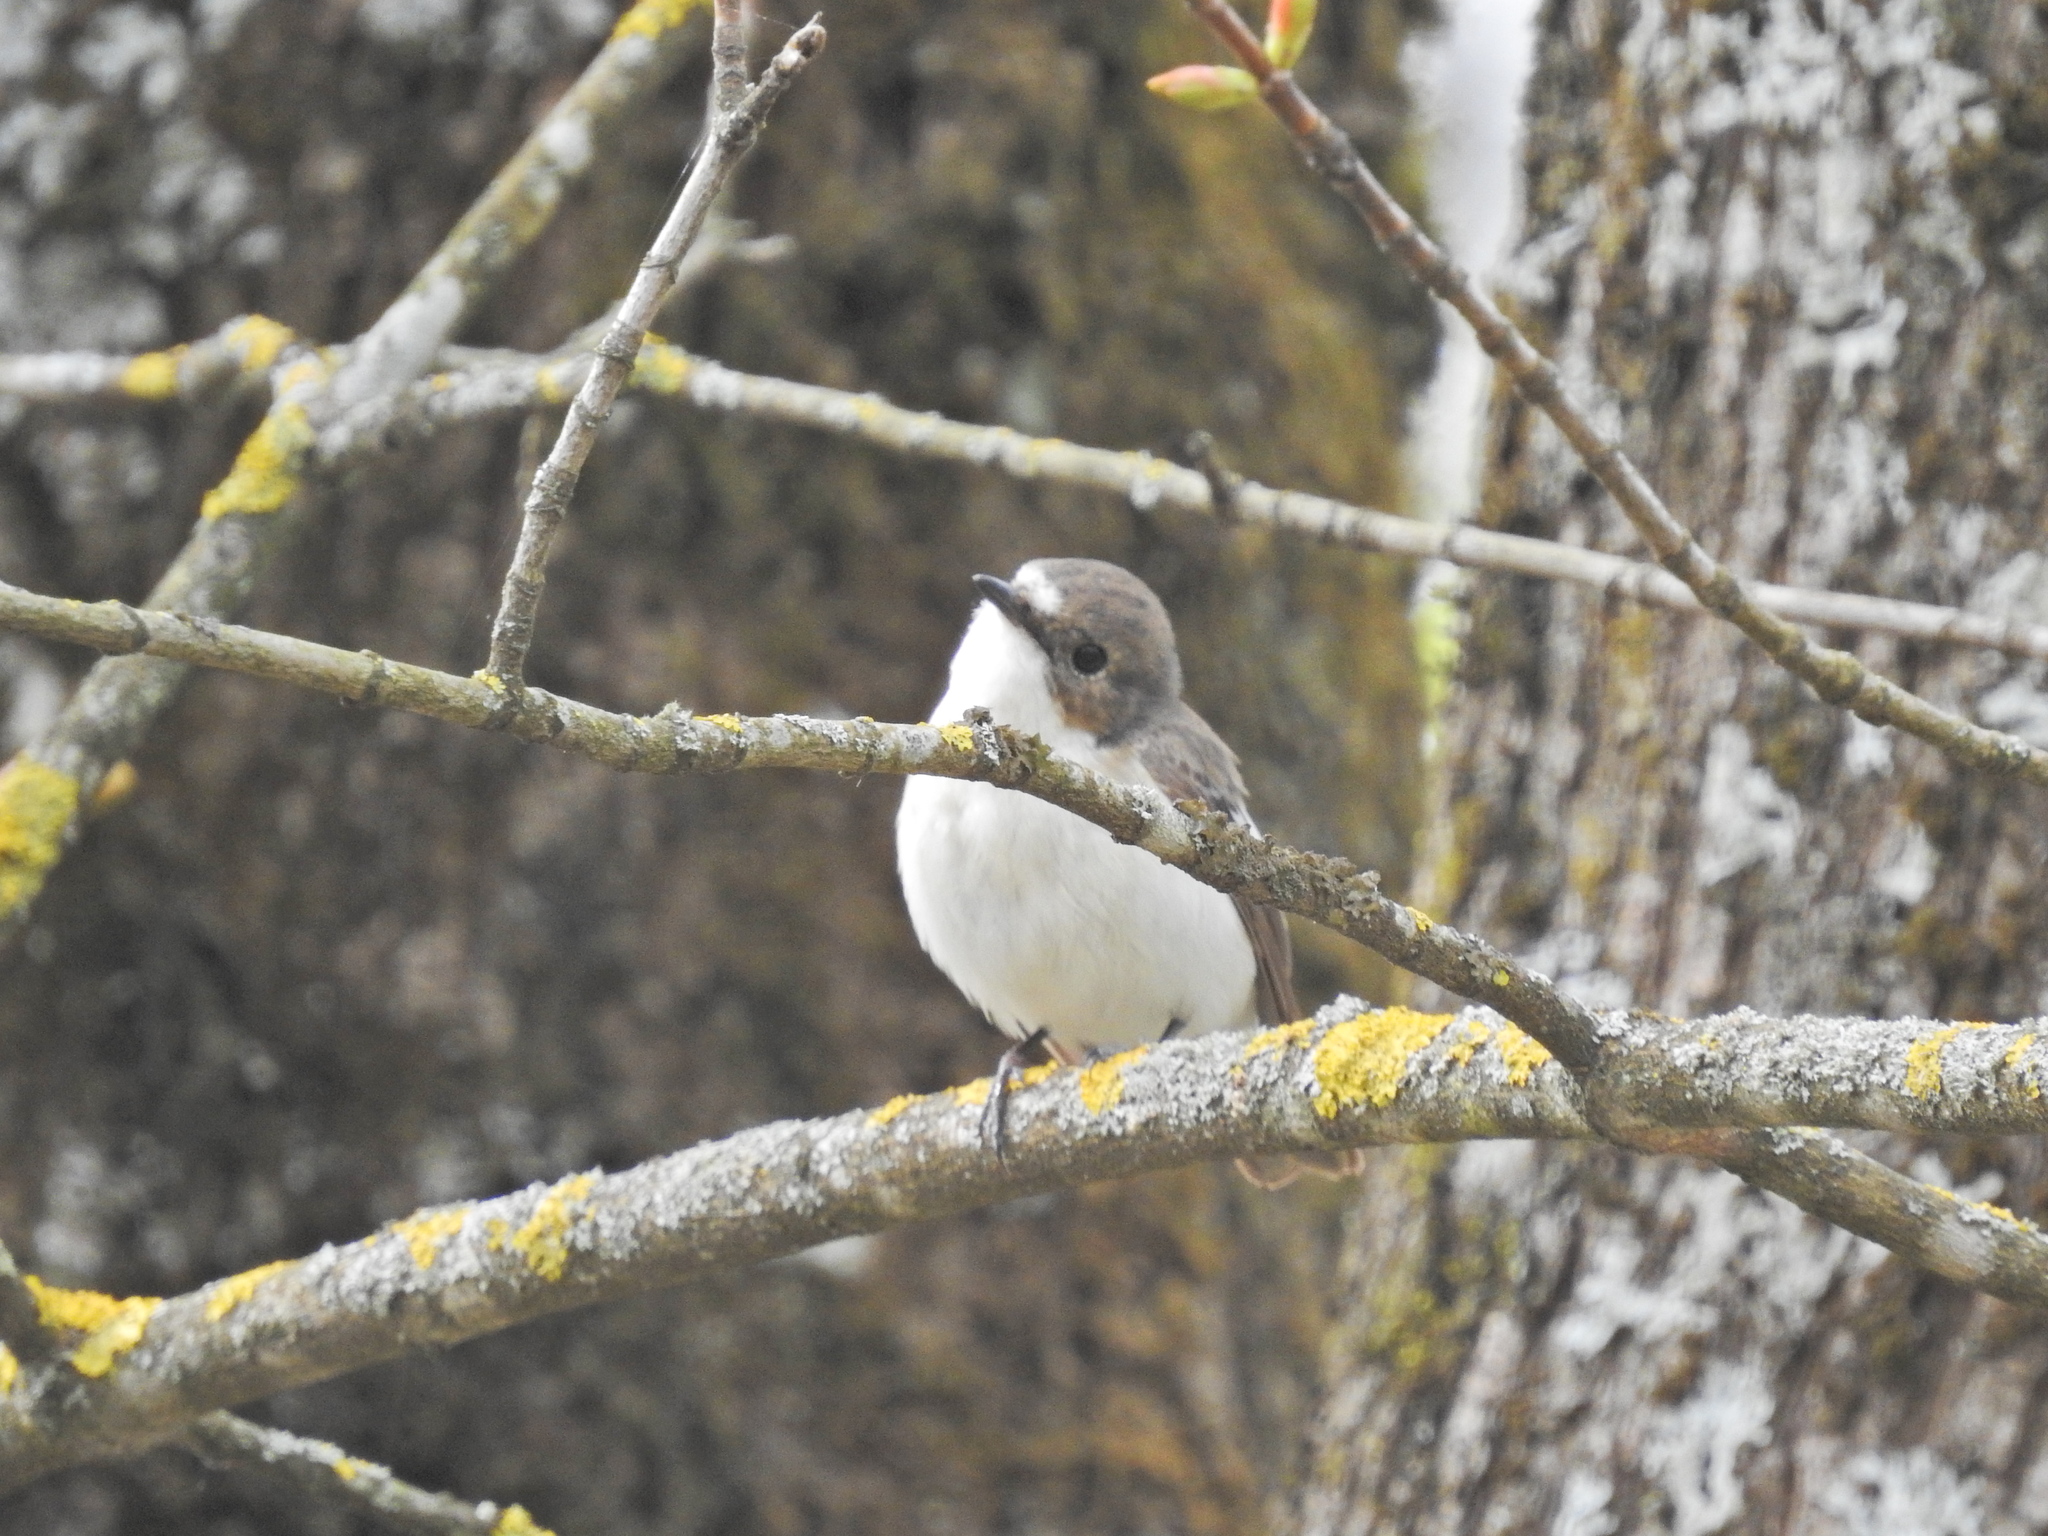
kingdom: Animalia
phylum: Chordata
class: Aves
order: Passeriformes
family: Muscicapidae
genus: Ficedula
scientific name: Ficedula hypoleuca
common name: European pied flycatcher
